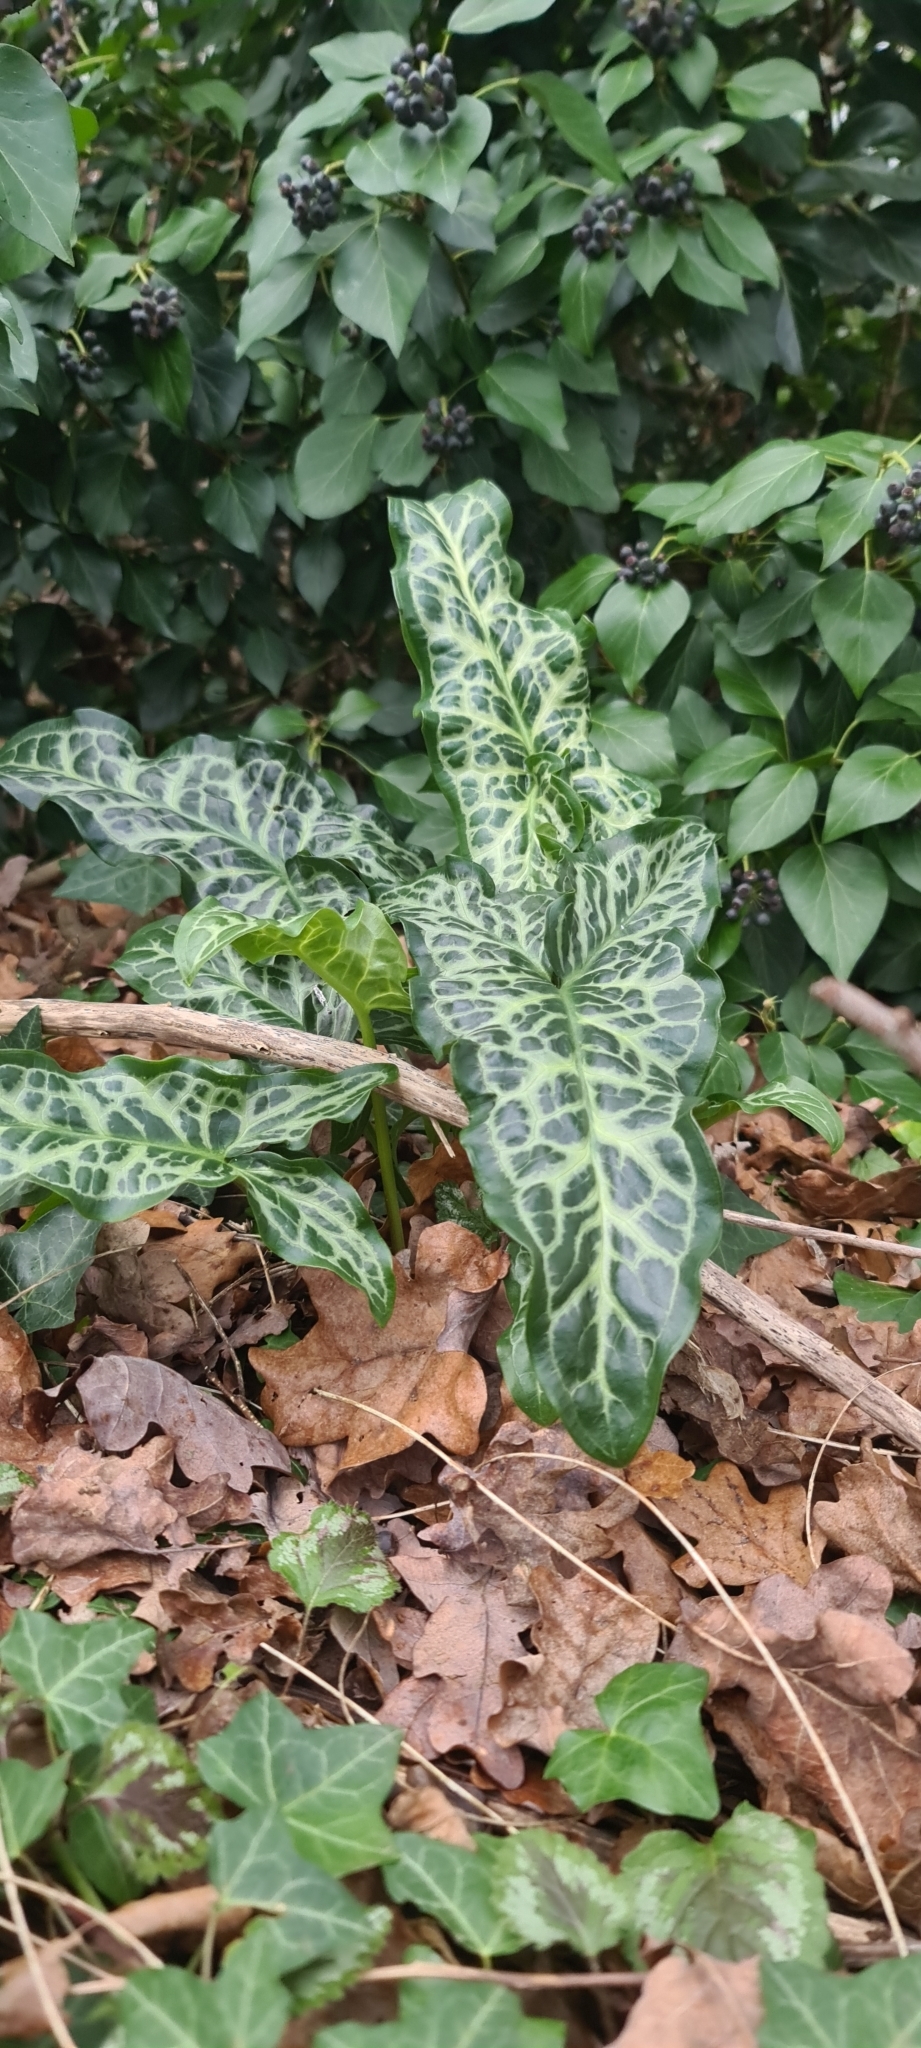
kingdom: Plantae
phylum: Tracheophyta
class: Liliopsida
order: Alismatales
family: Araceae
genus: Arum
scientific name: Arum italicum
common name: Italian lords-and-ladies
